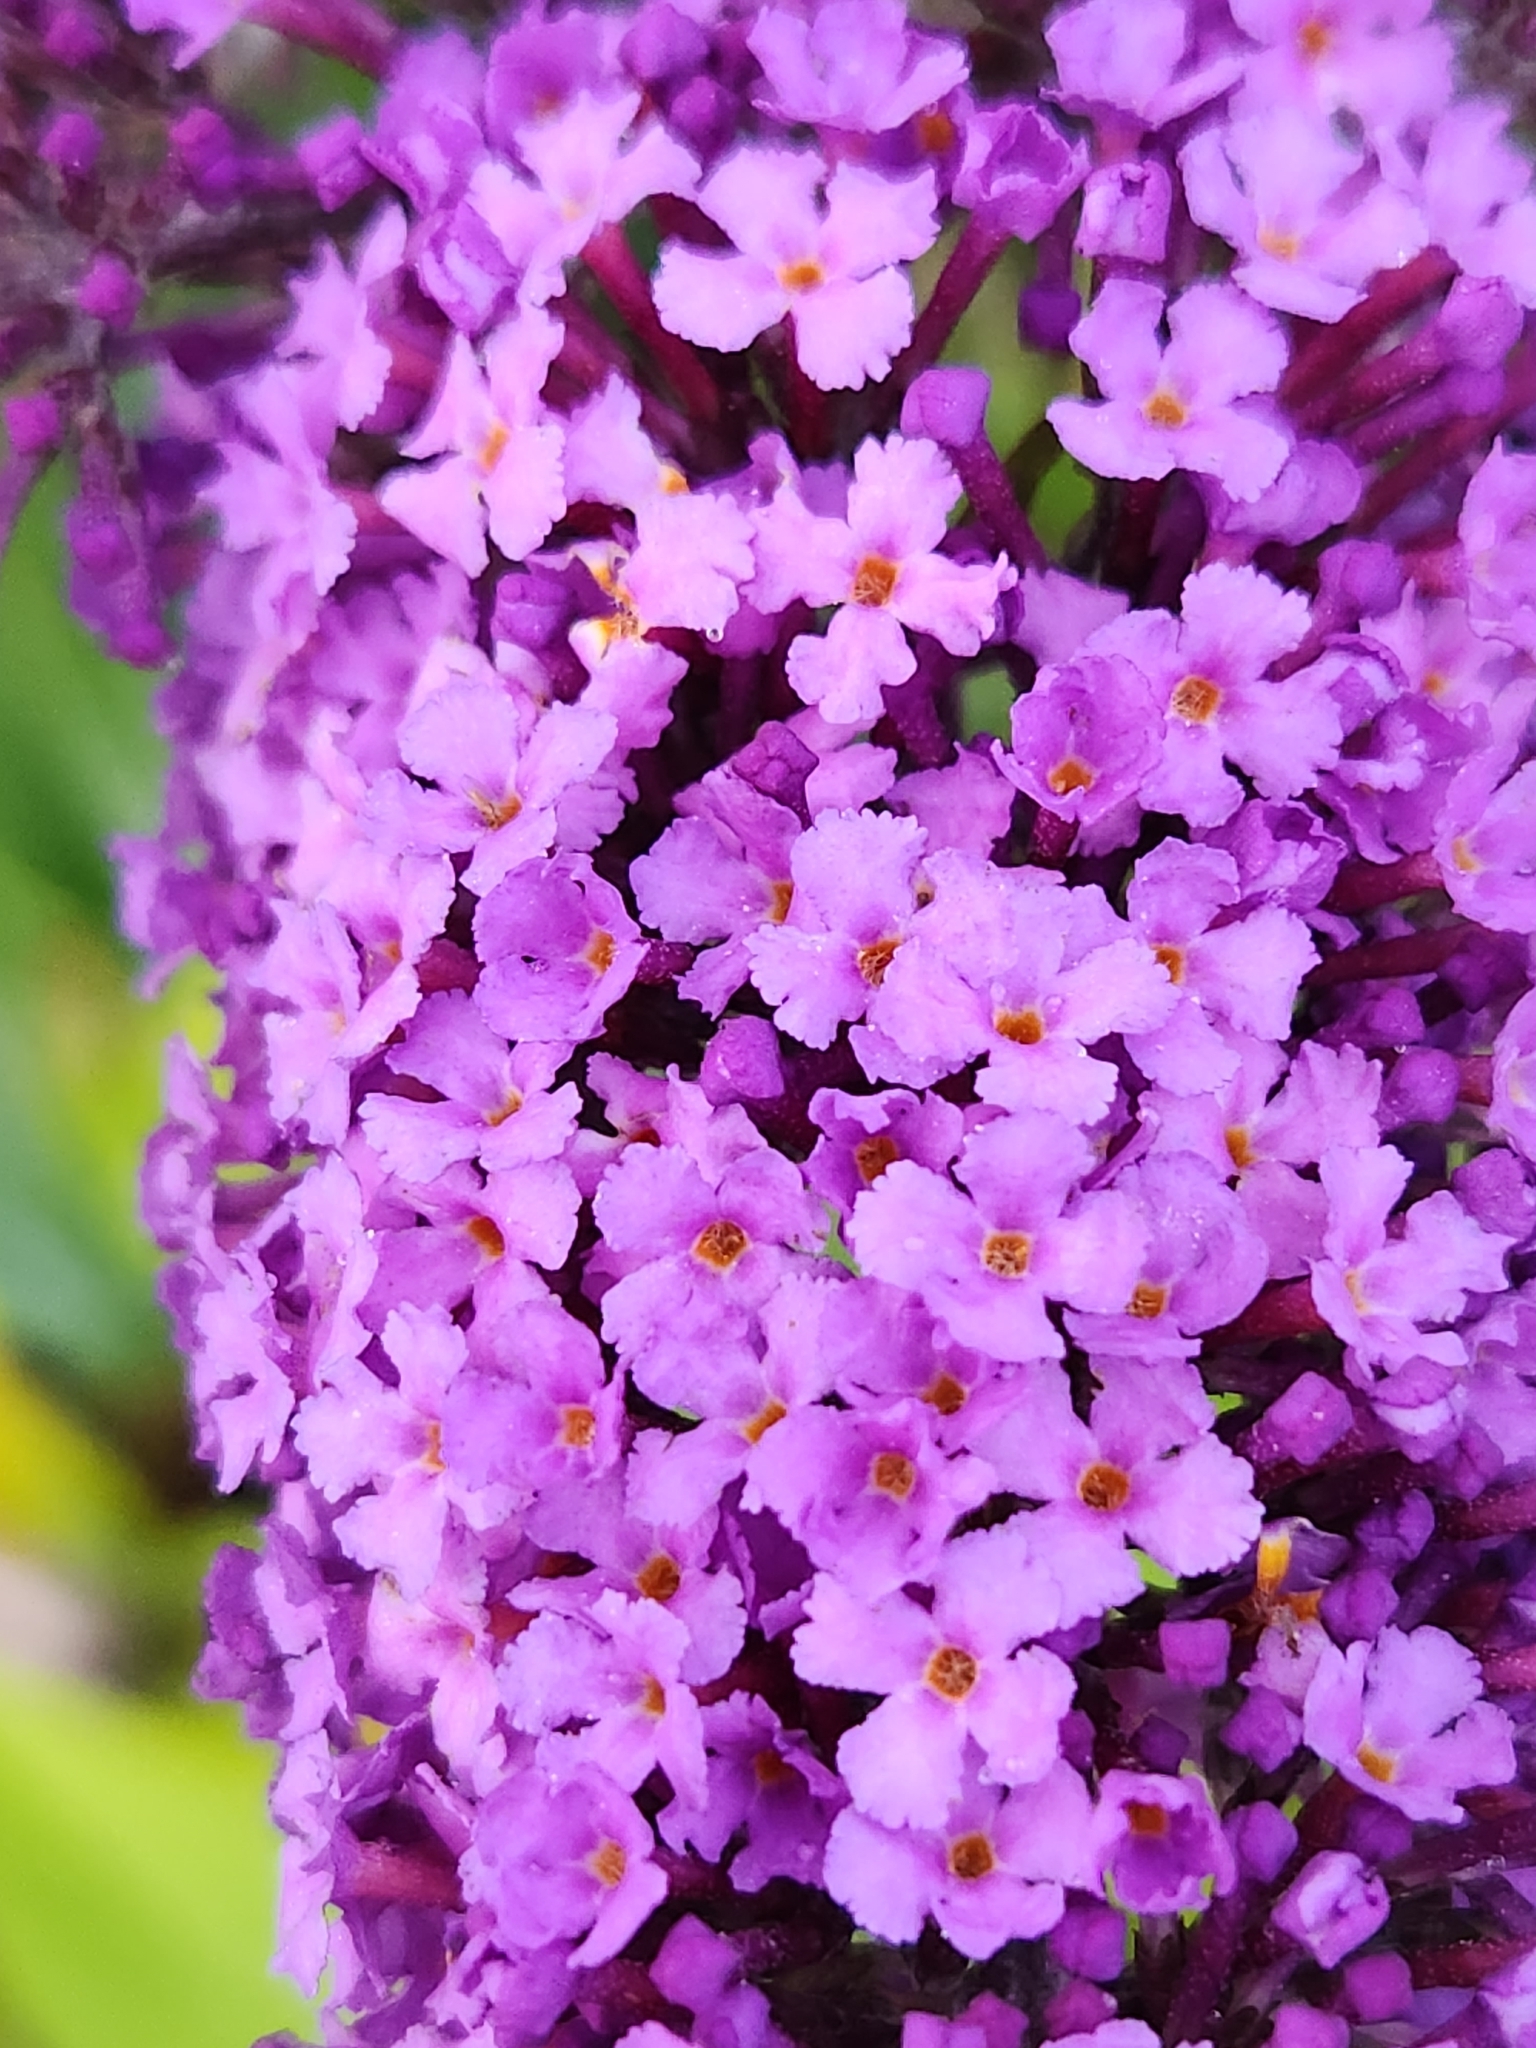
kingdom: Plantae
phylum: Tracheophyta
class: Magnoliopsida
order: Lamiales
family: Scrophulariaceae
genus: Buddleja
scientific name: Buddleja davidii
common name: Butterfly-bush
